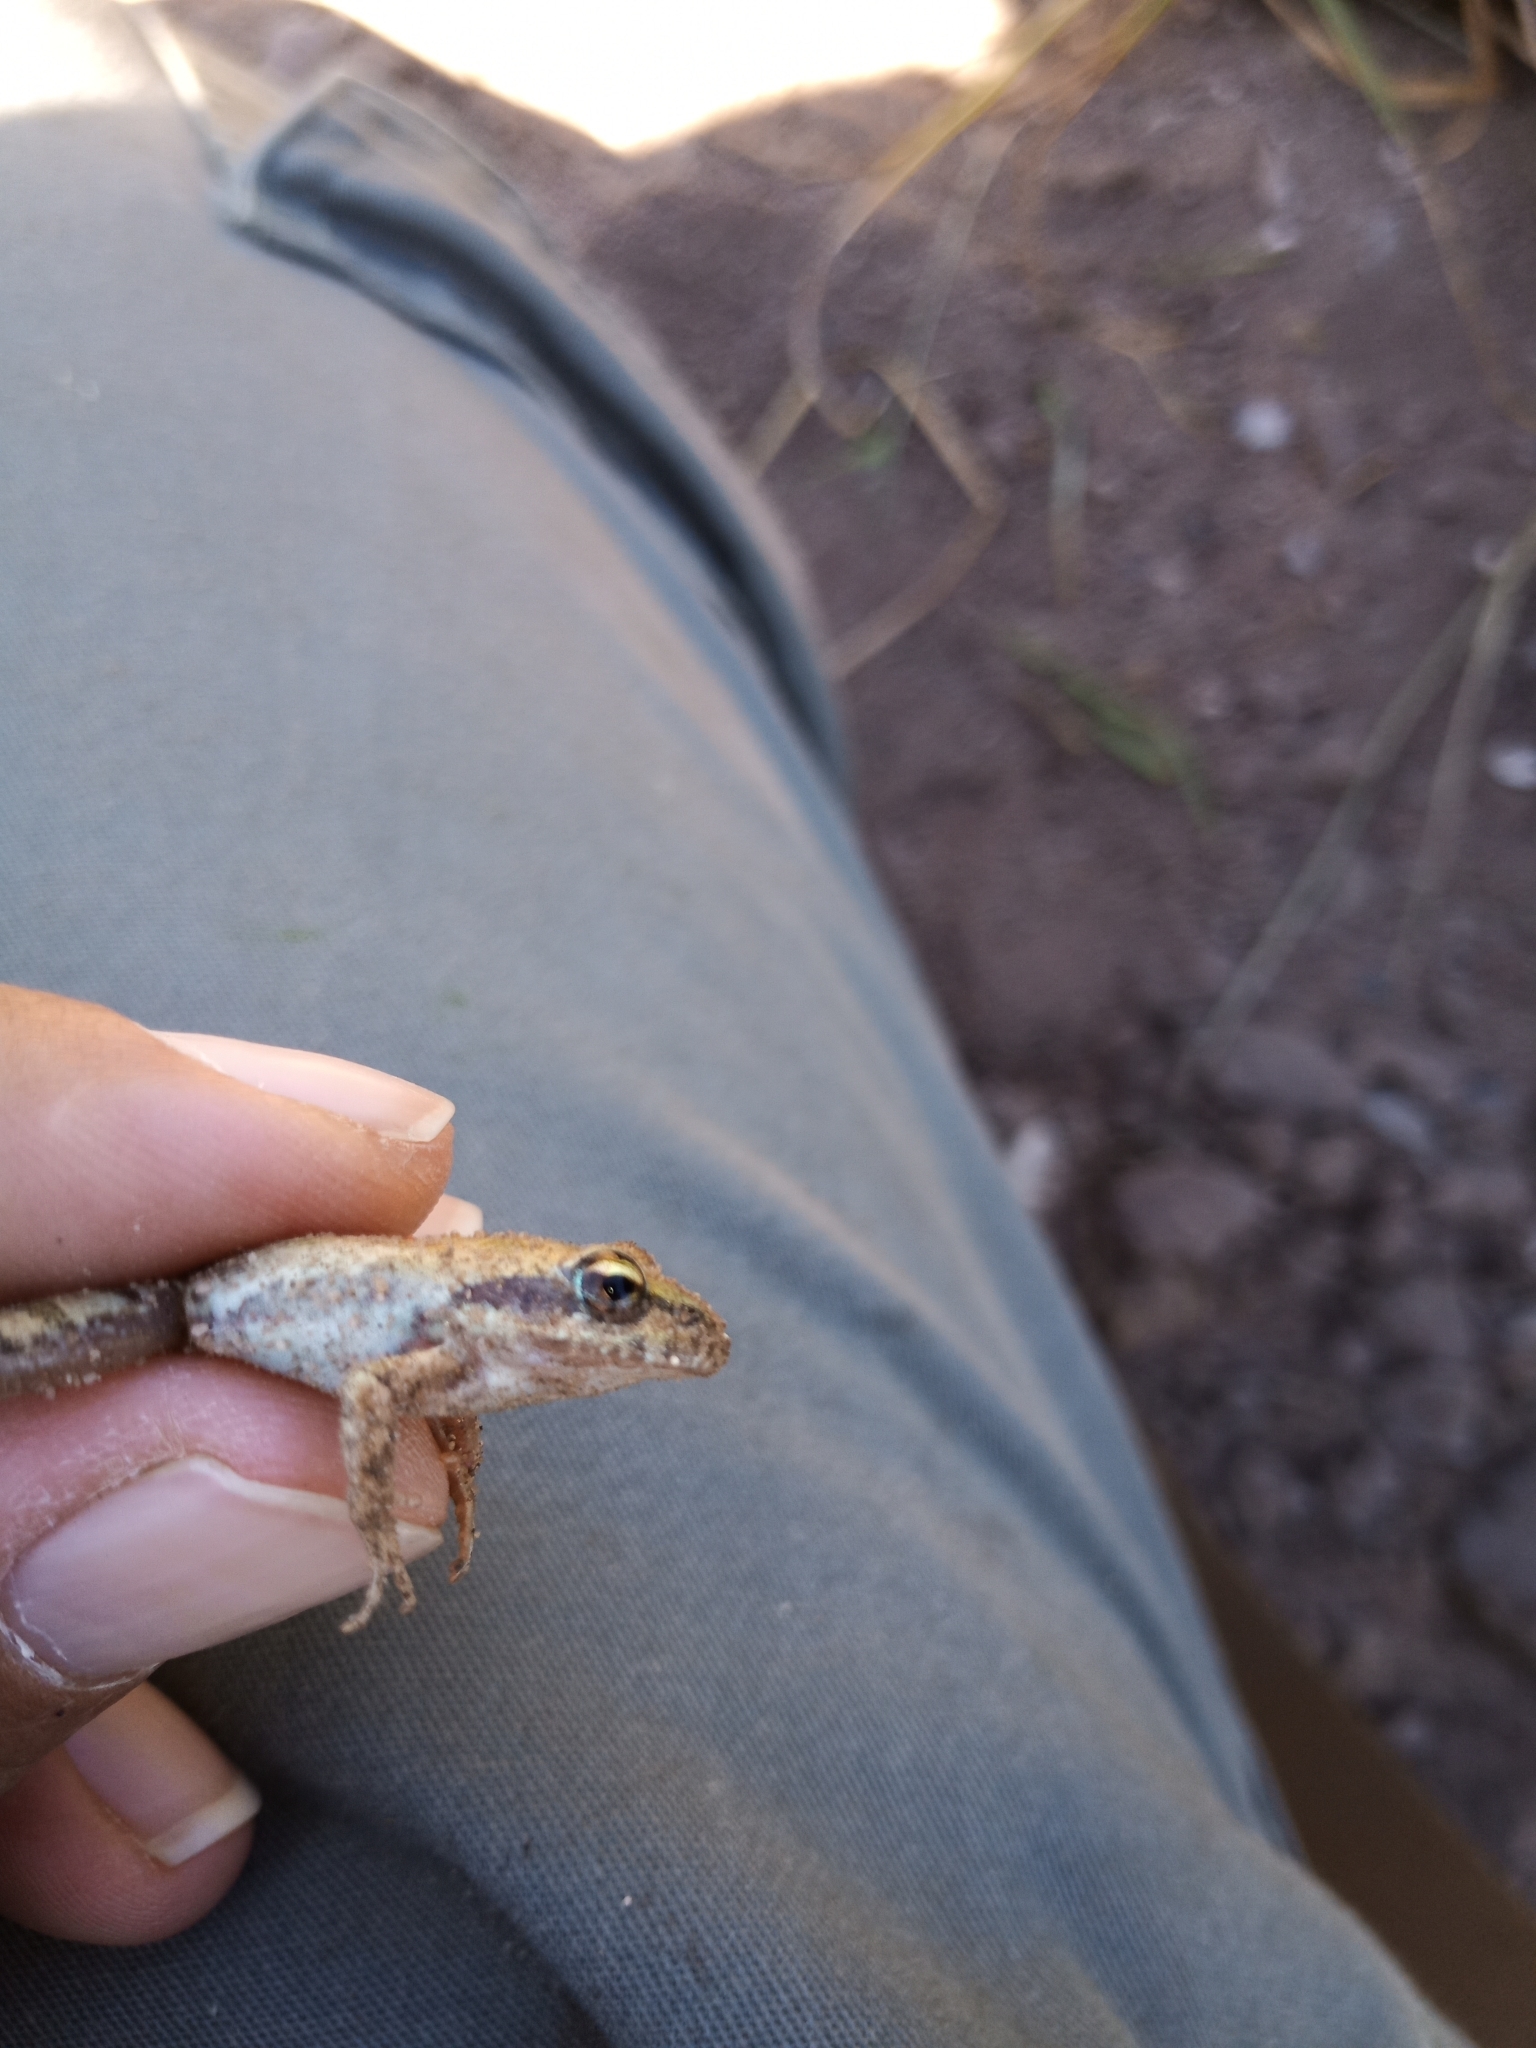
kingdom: Animalia
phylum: Chordata
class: Amphibia
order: Anura
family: Pyxicephalidae
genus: Strongylopus
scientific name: Strongylopus grayii
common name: Gray's stream frog
